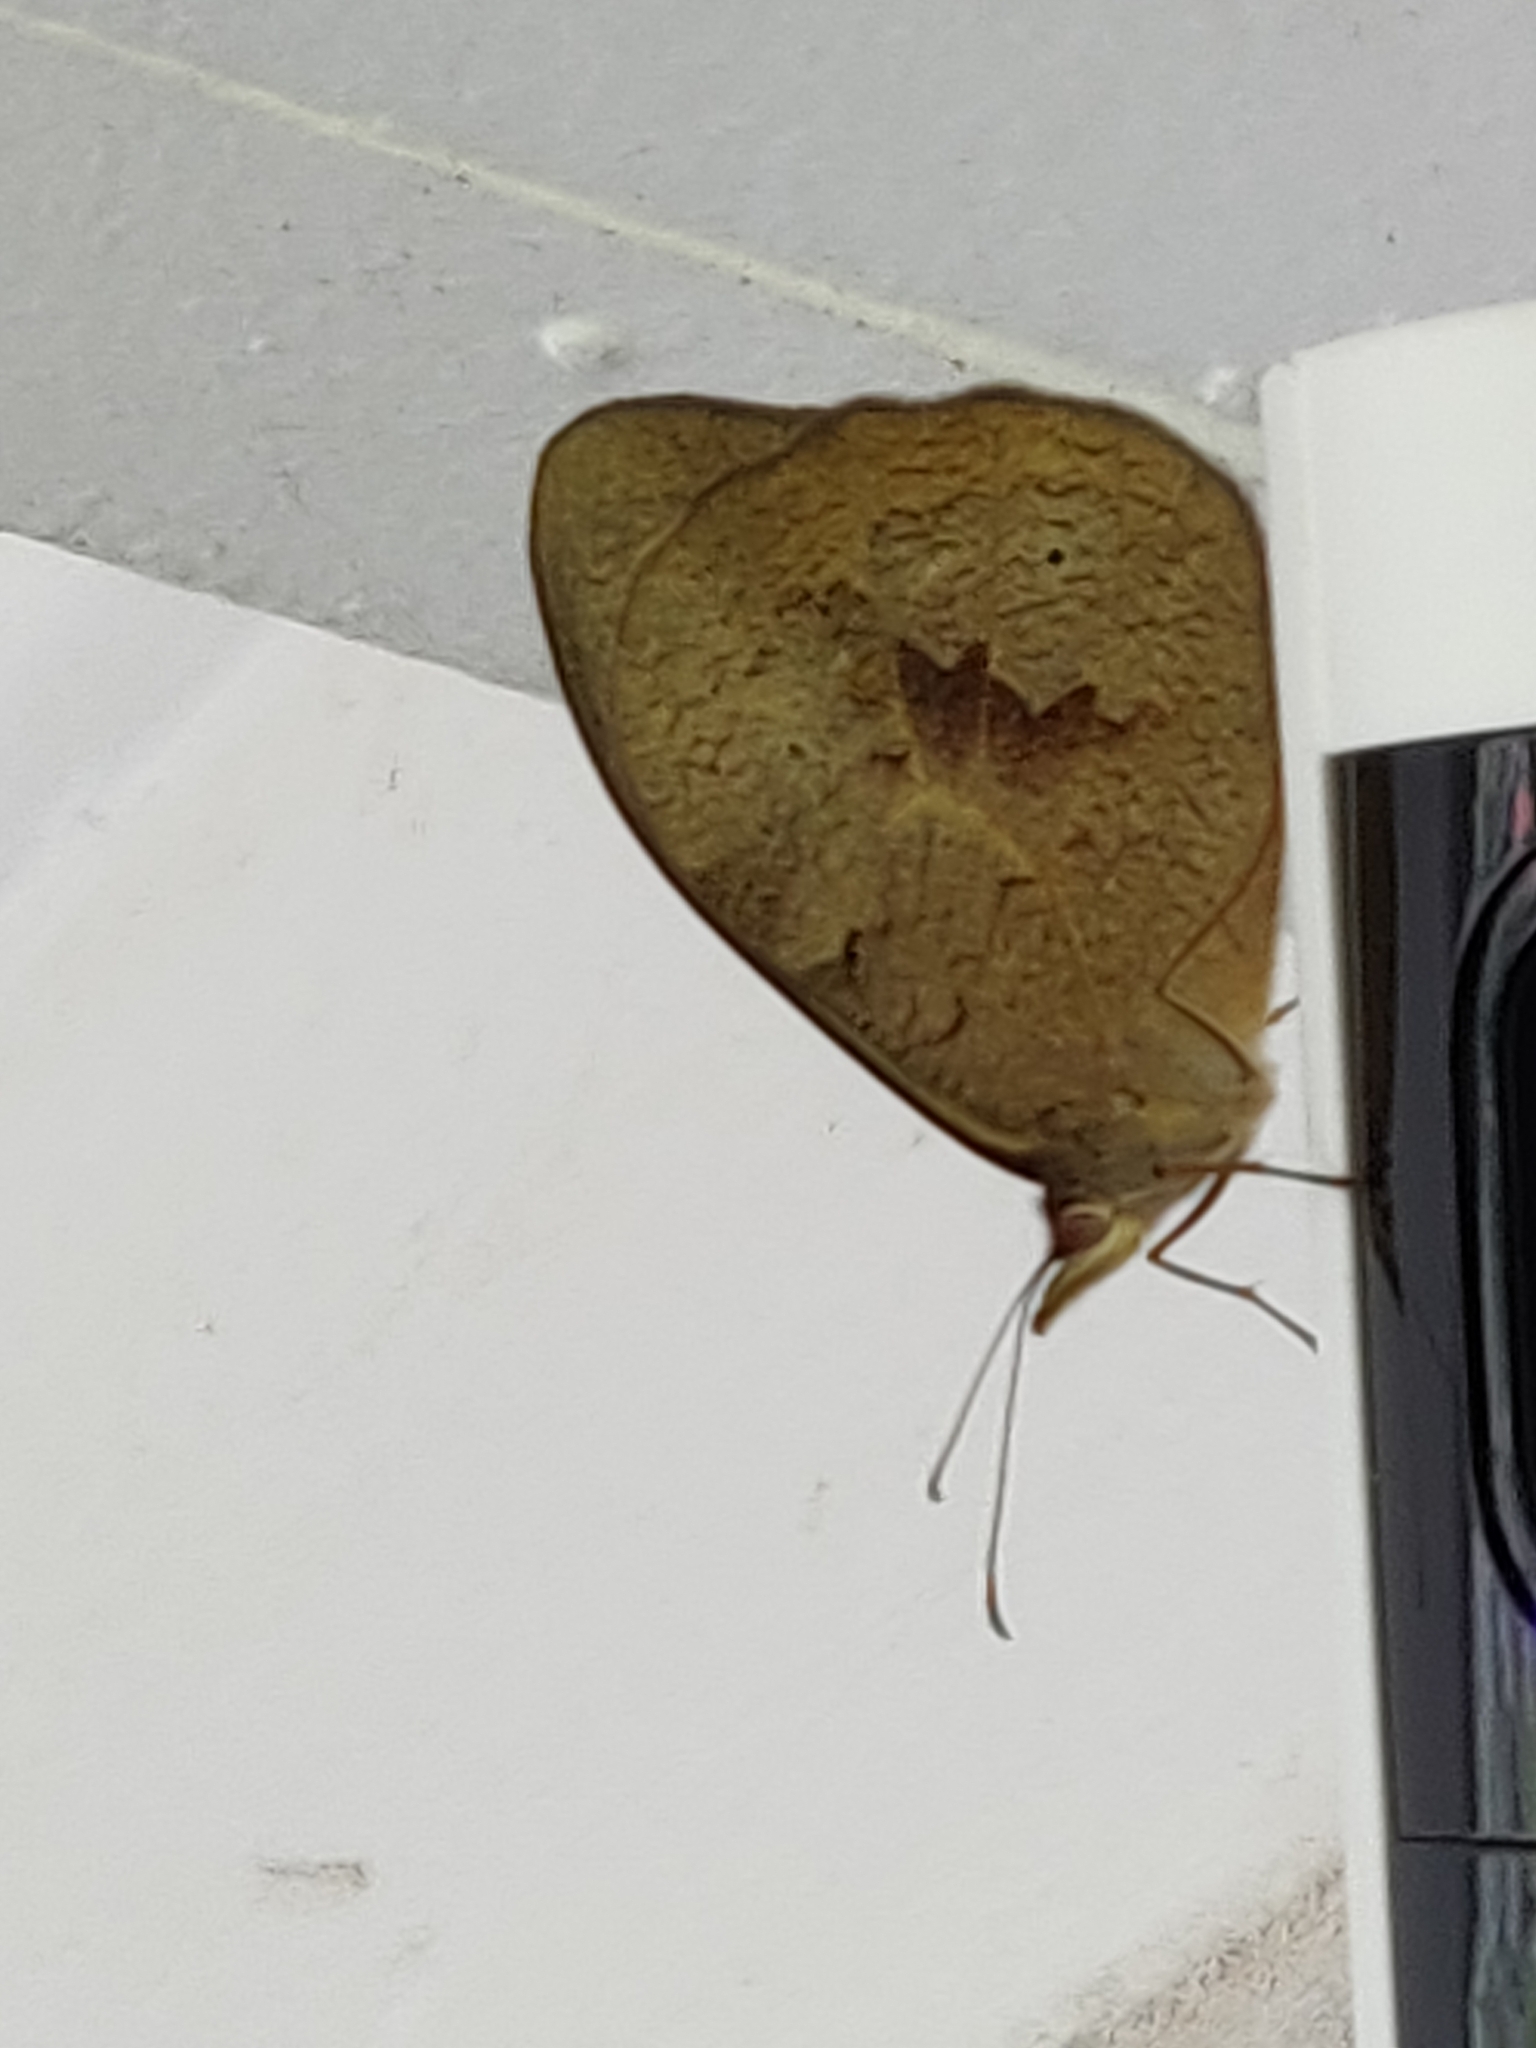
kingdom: Animalia
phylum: Arthropoda
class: Insecta
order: Lepidoptera
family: Nymphalidae
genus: Heteronympha
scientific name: Heteronympha merope
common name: Common brown
